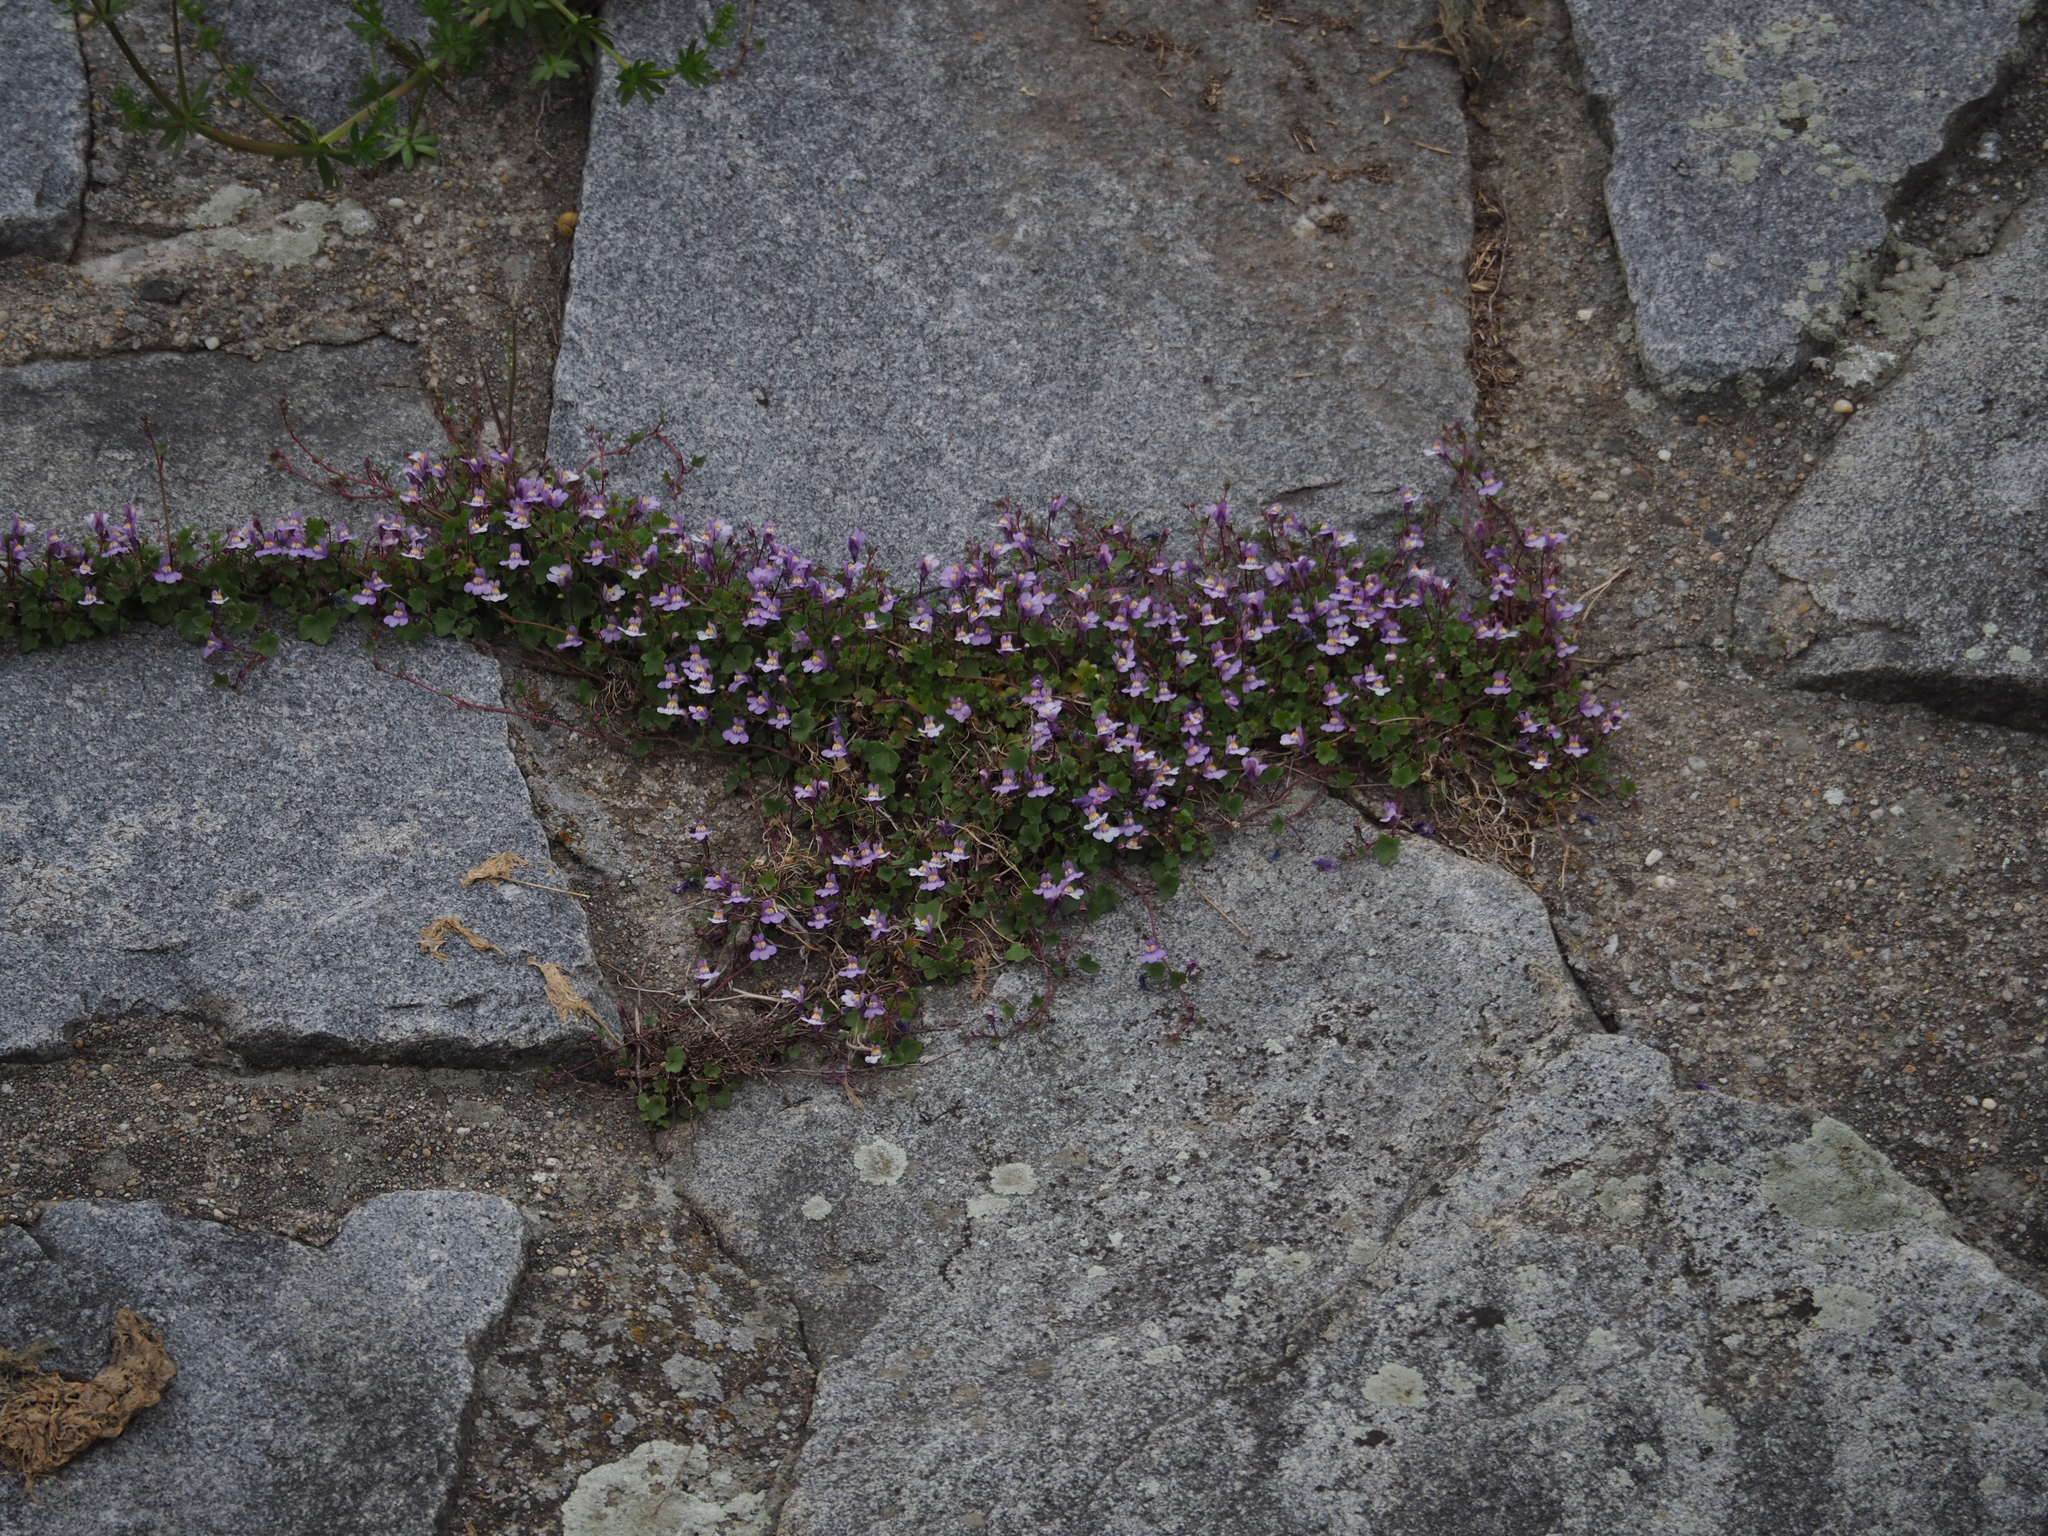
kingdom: Plantae
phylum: Tracheophyta
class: Magnoliopsida
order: Lamiales
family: Plantaginaceae
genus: Cymbalaria
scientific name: Cymbalaria muralis
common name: Ivy-leaved toadflax
